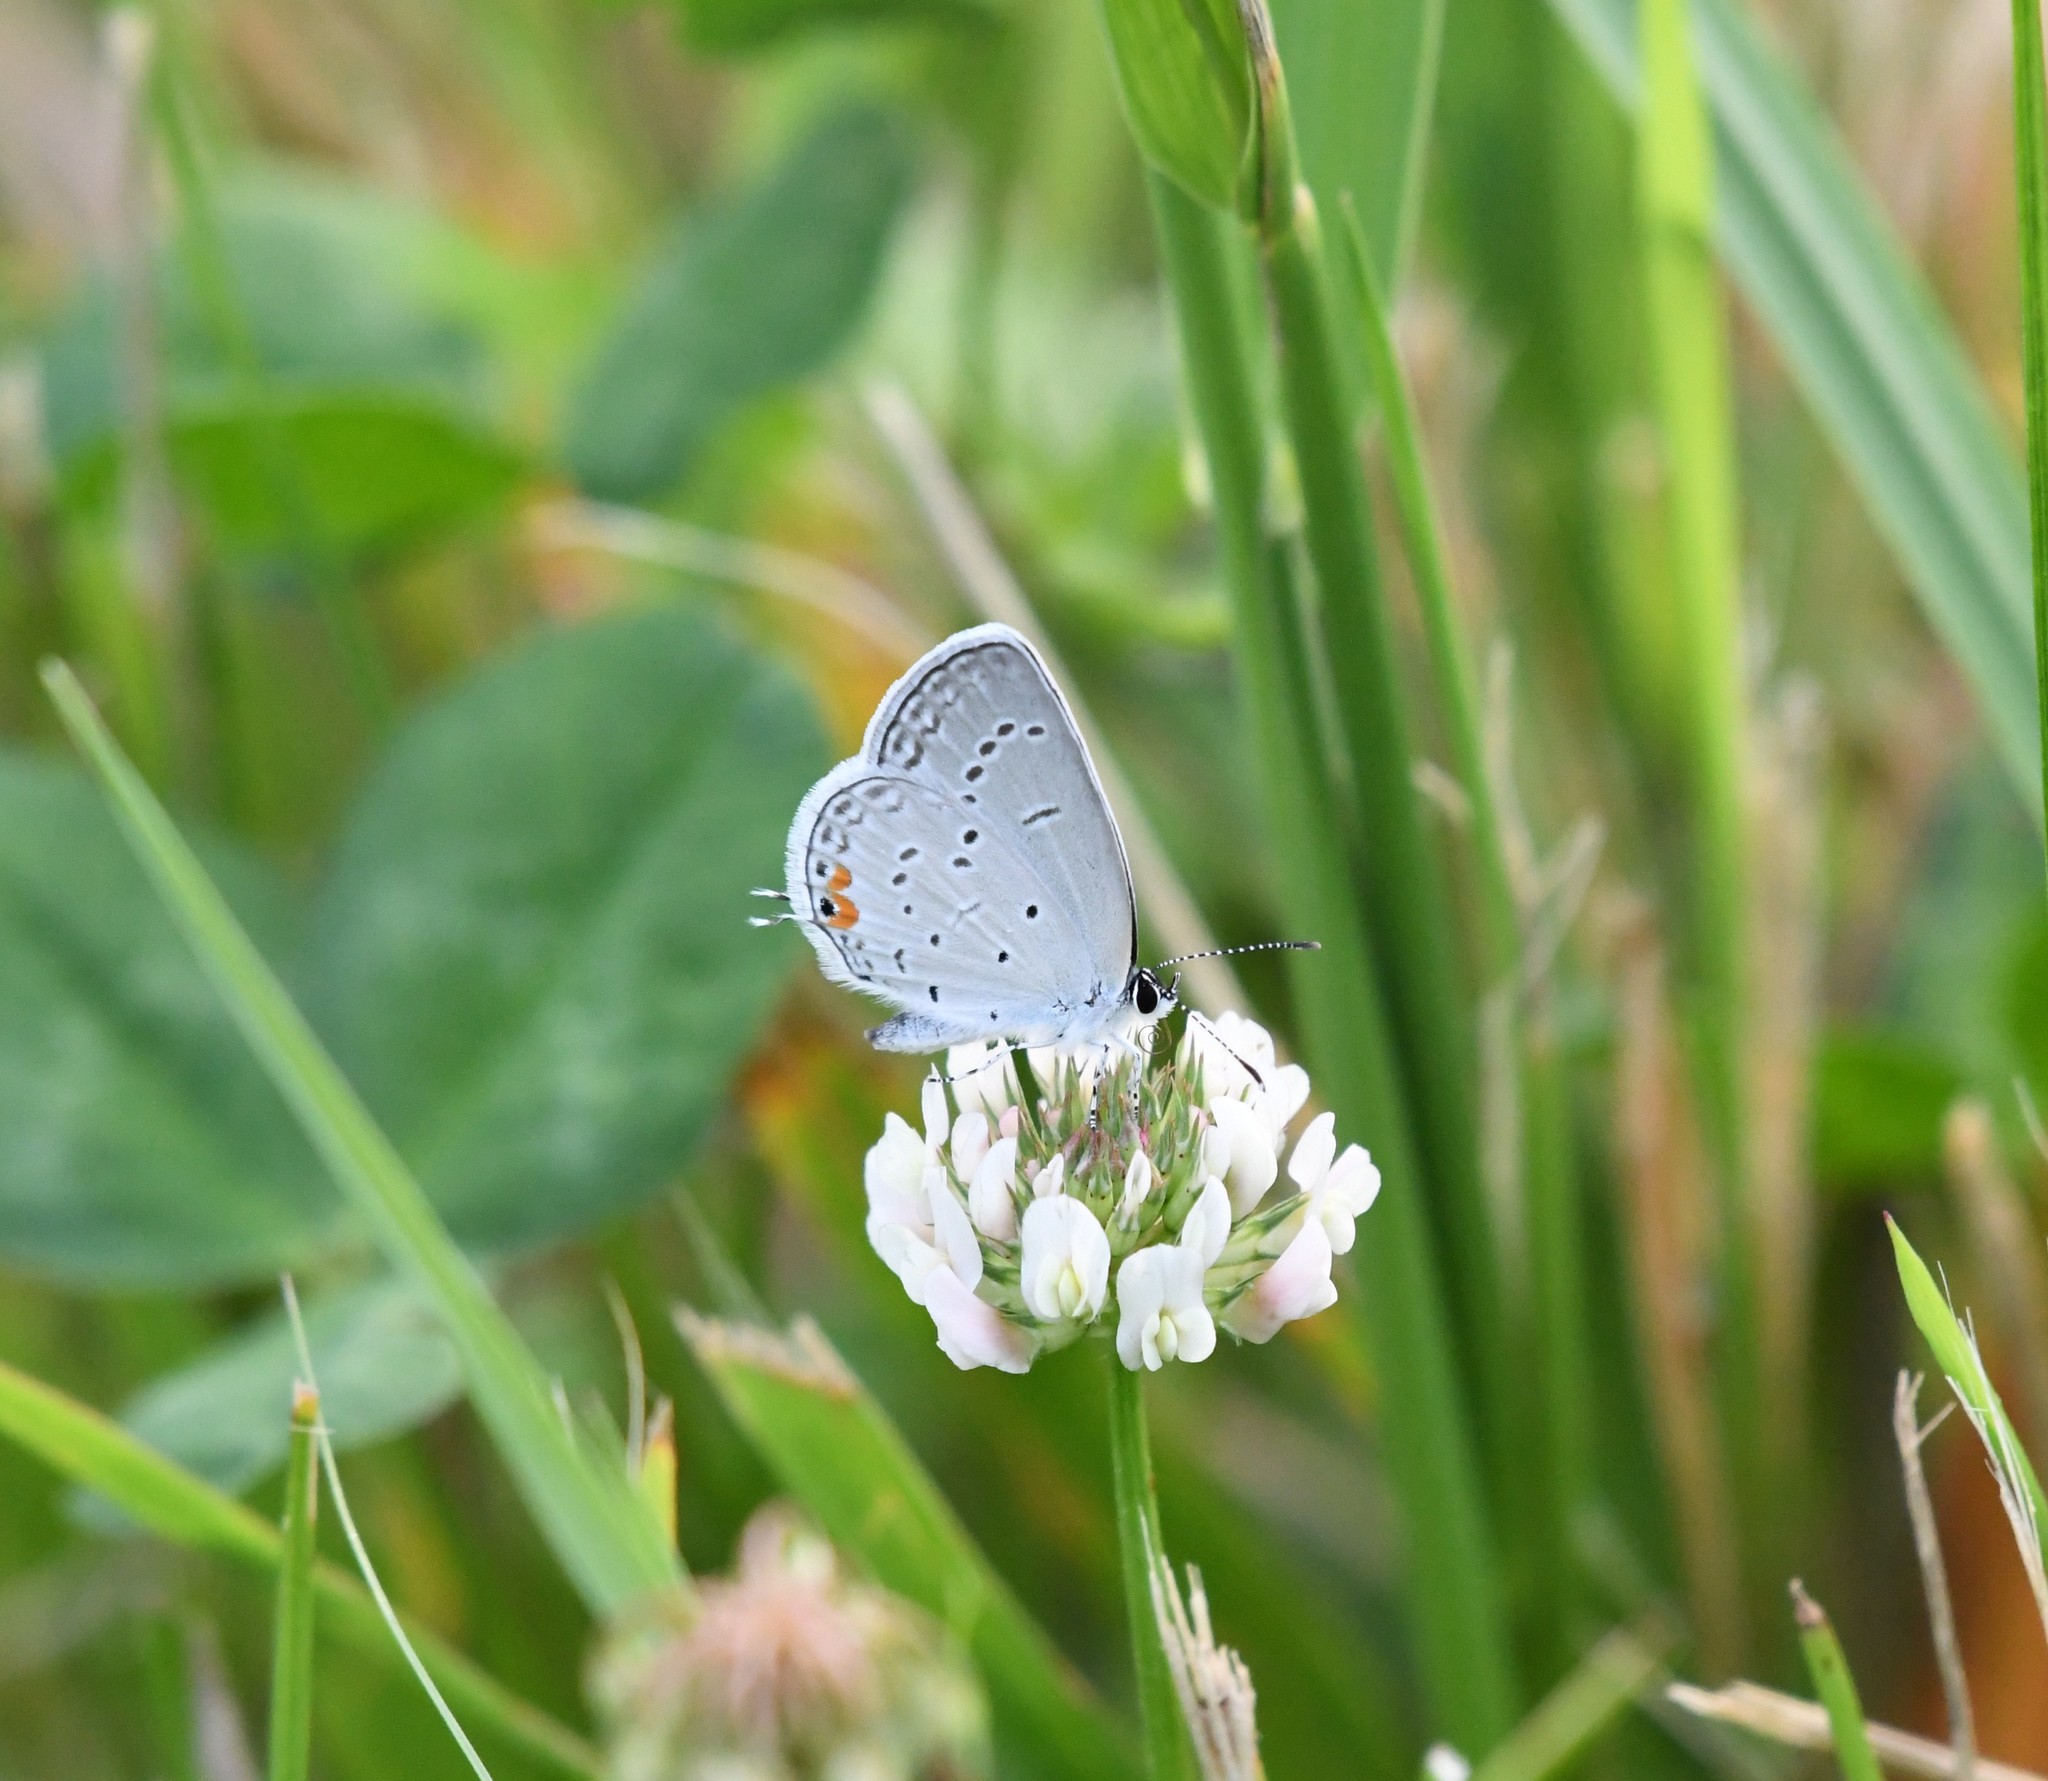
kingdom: Animalia
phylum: Arthropoda
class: Insecta
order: Lepidoptera
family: Lycaenidae
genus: Elkalyce
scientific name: Elkalyce comyntas
